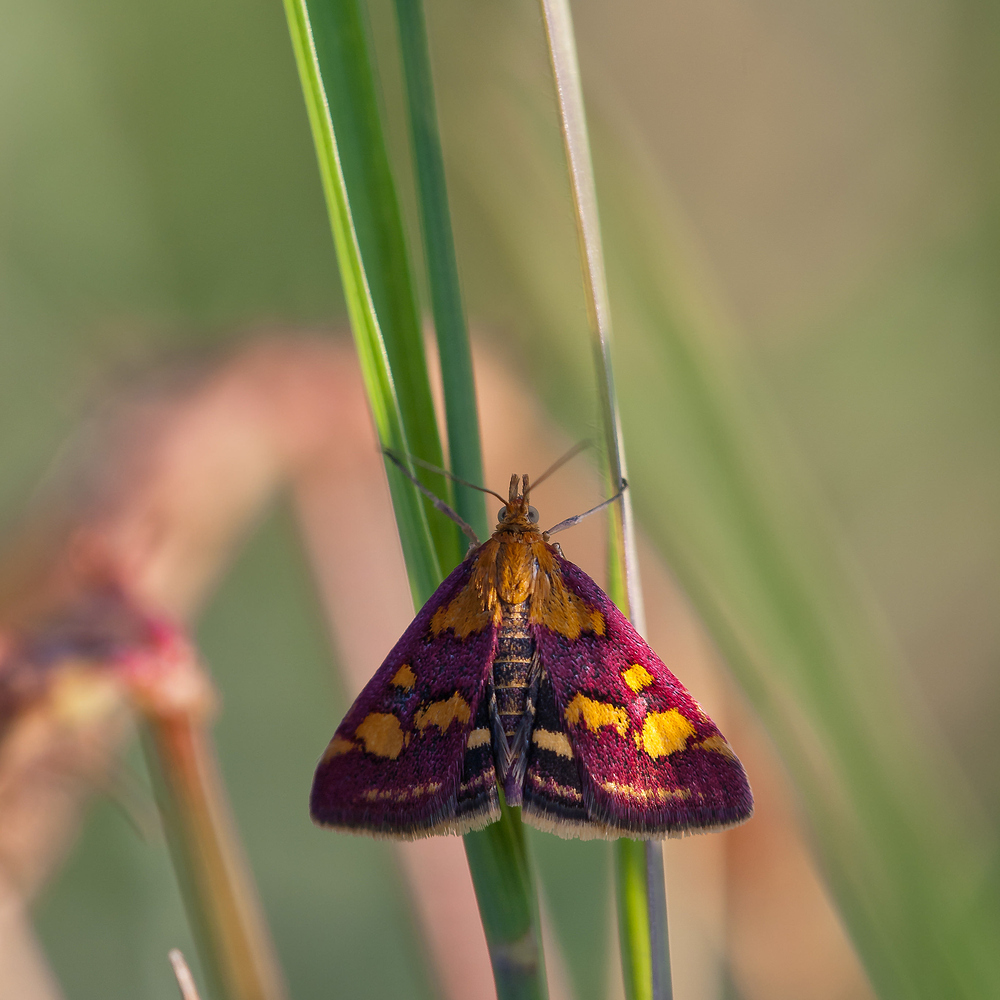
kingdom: Animalia
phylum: Arthropoda
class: Insecta
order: Lepidoptera
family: Crambidae
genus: Pyrausta
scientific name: Pyrausta purpuralis
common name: Common purple & gold
